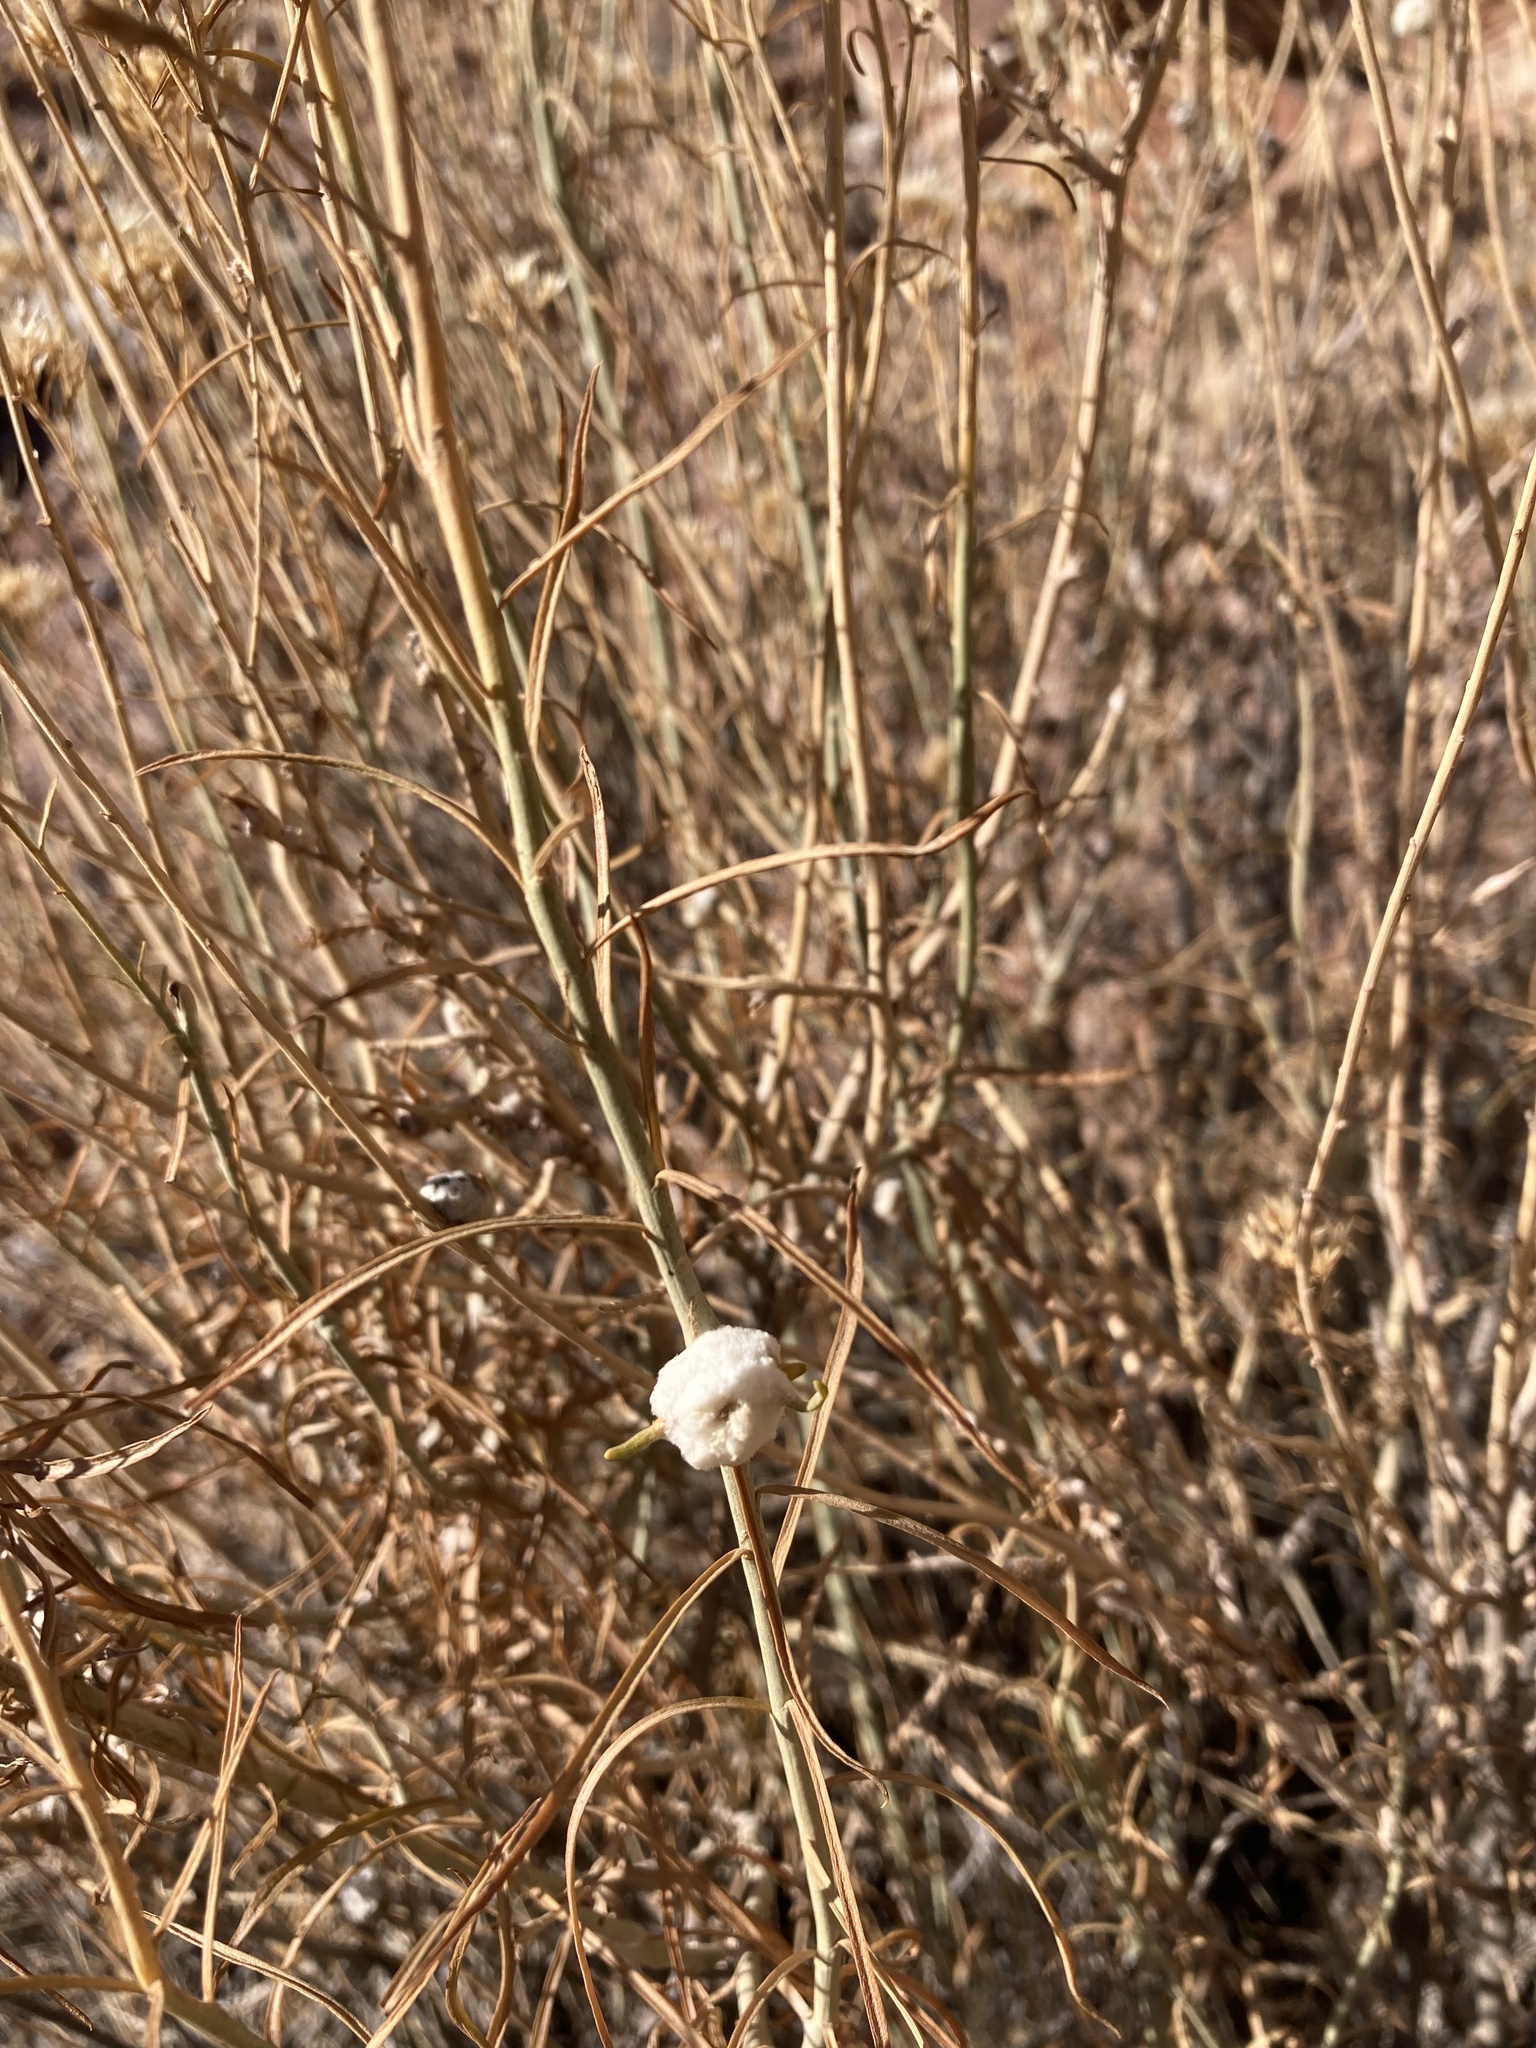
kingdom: Animalia
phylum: Arthropoda
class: Insecta
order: Diptera
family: Tephritidae
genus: Aciurina
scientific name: Aciurina bigeloviae
